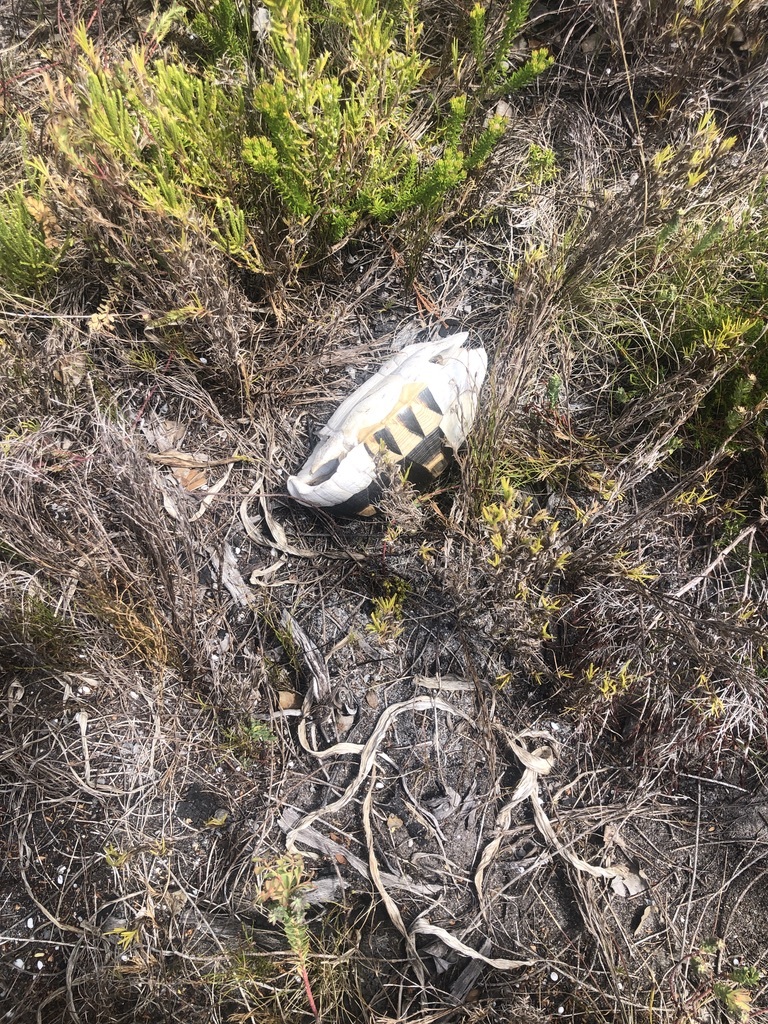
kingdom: Animalia
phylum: Chordata
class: Testudines
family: Testudinidae
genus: Chersina
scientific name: Chersina angulata
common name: South african bowsprit tortoise
